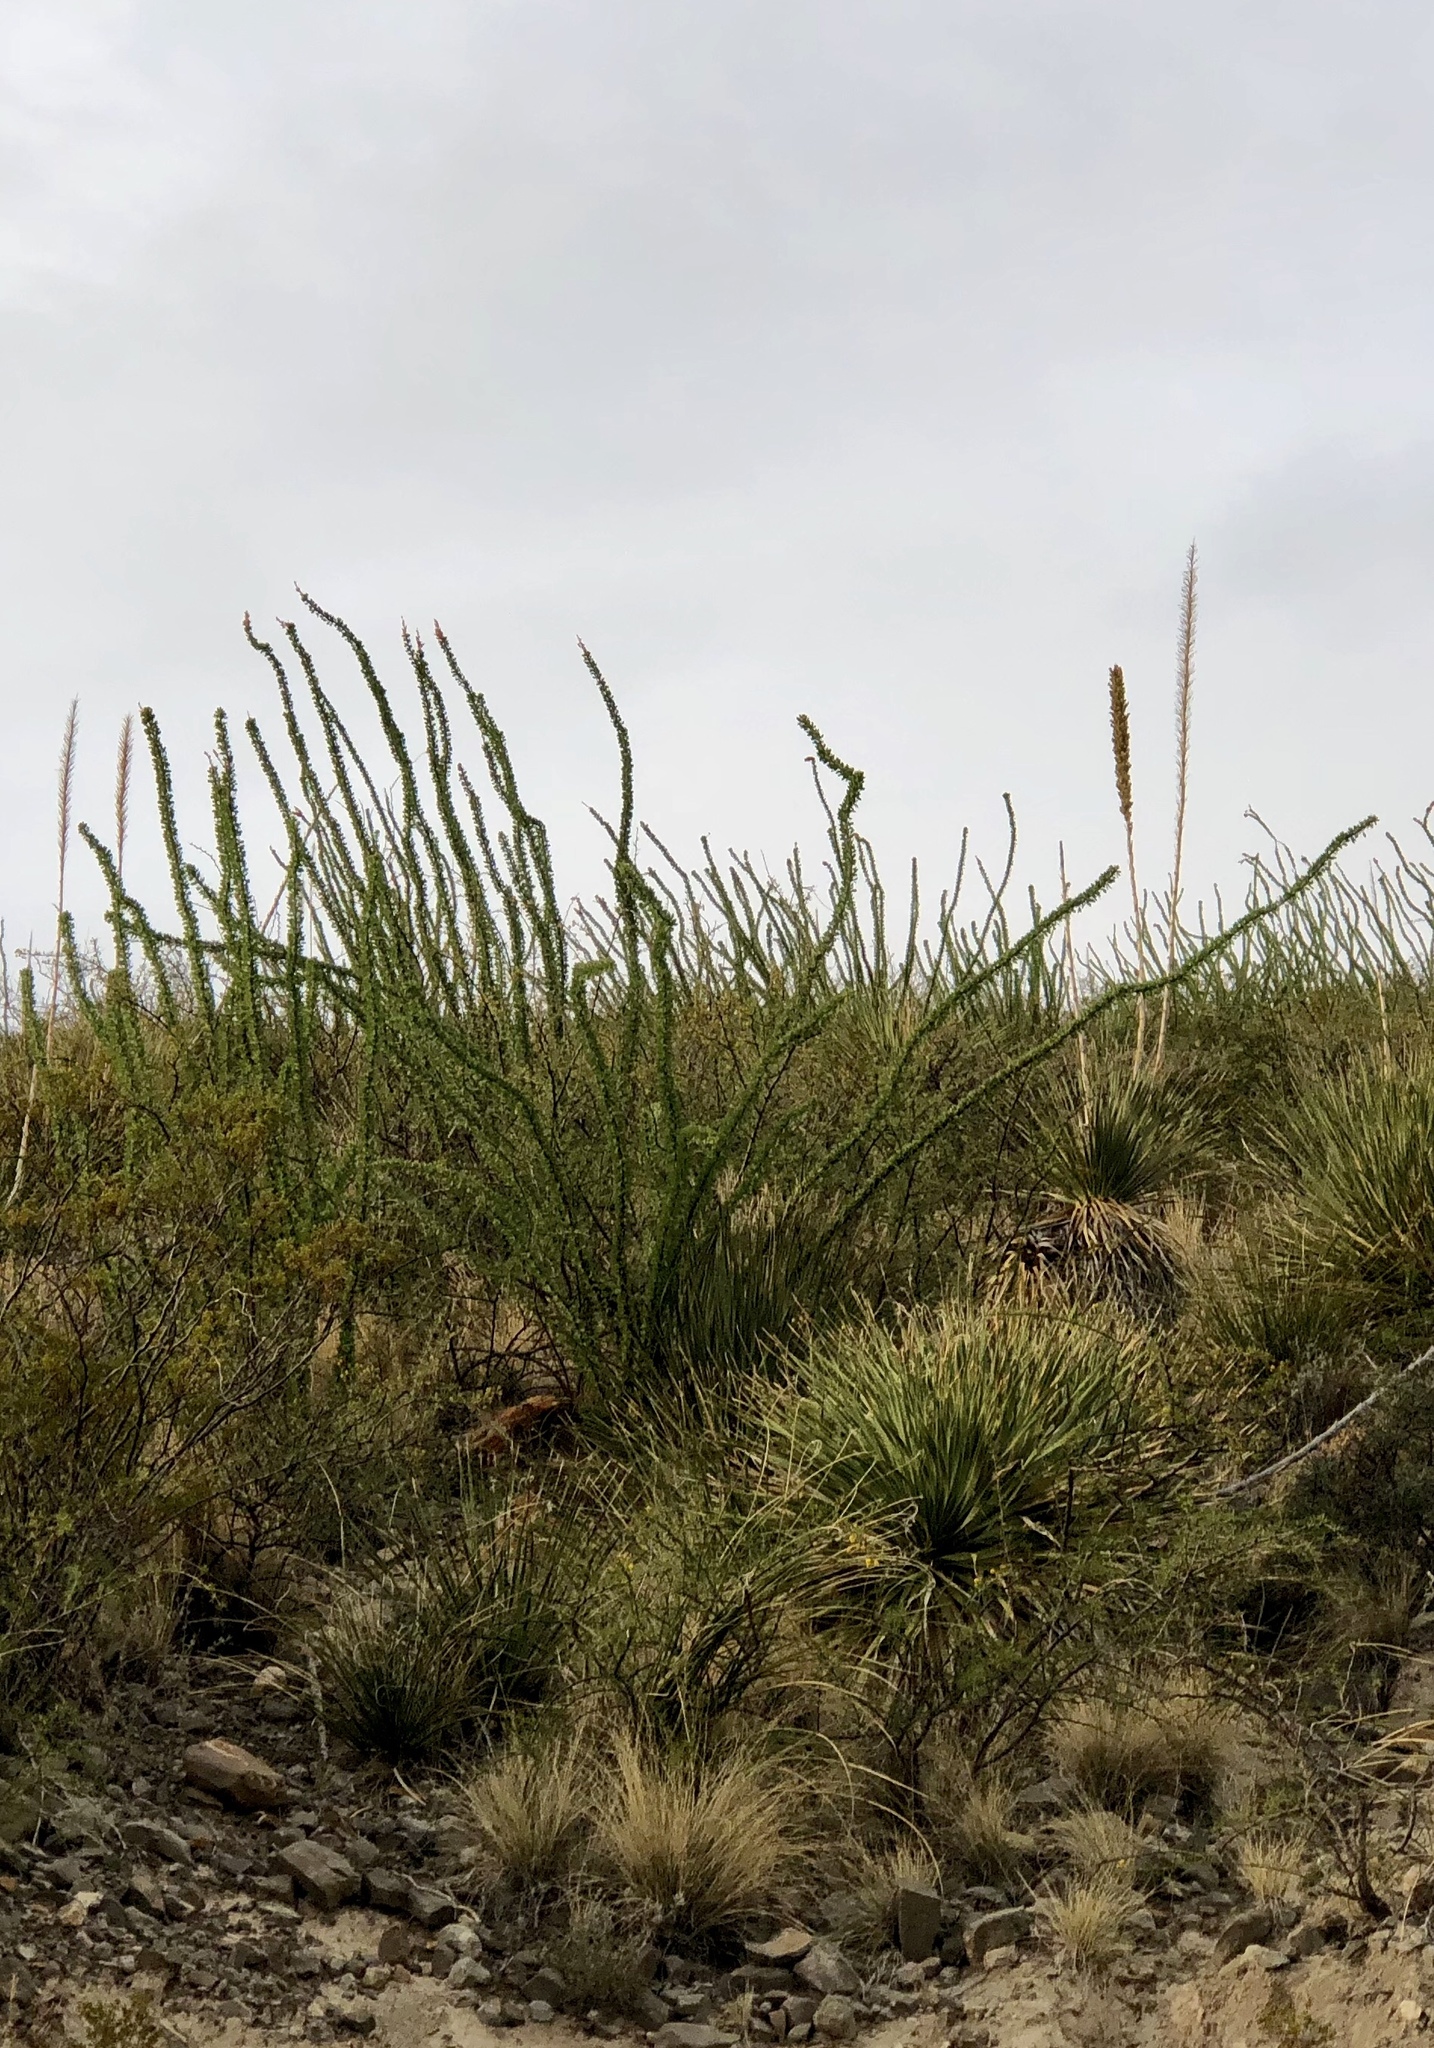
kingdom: Plantae
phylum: Tracheophyta
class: Magnoliopsida
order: Ericales
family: Fouquieriaceae
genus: Fouquieria
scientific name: Fouquieria splendens
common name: Vine-cactus
